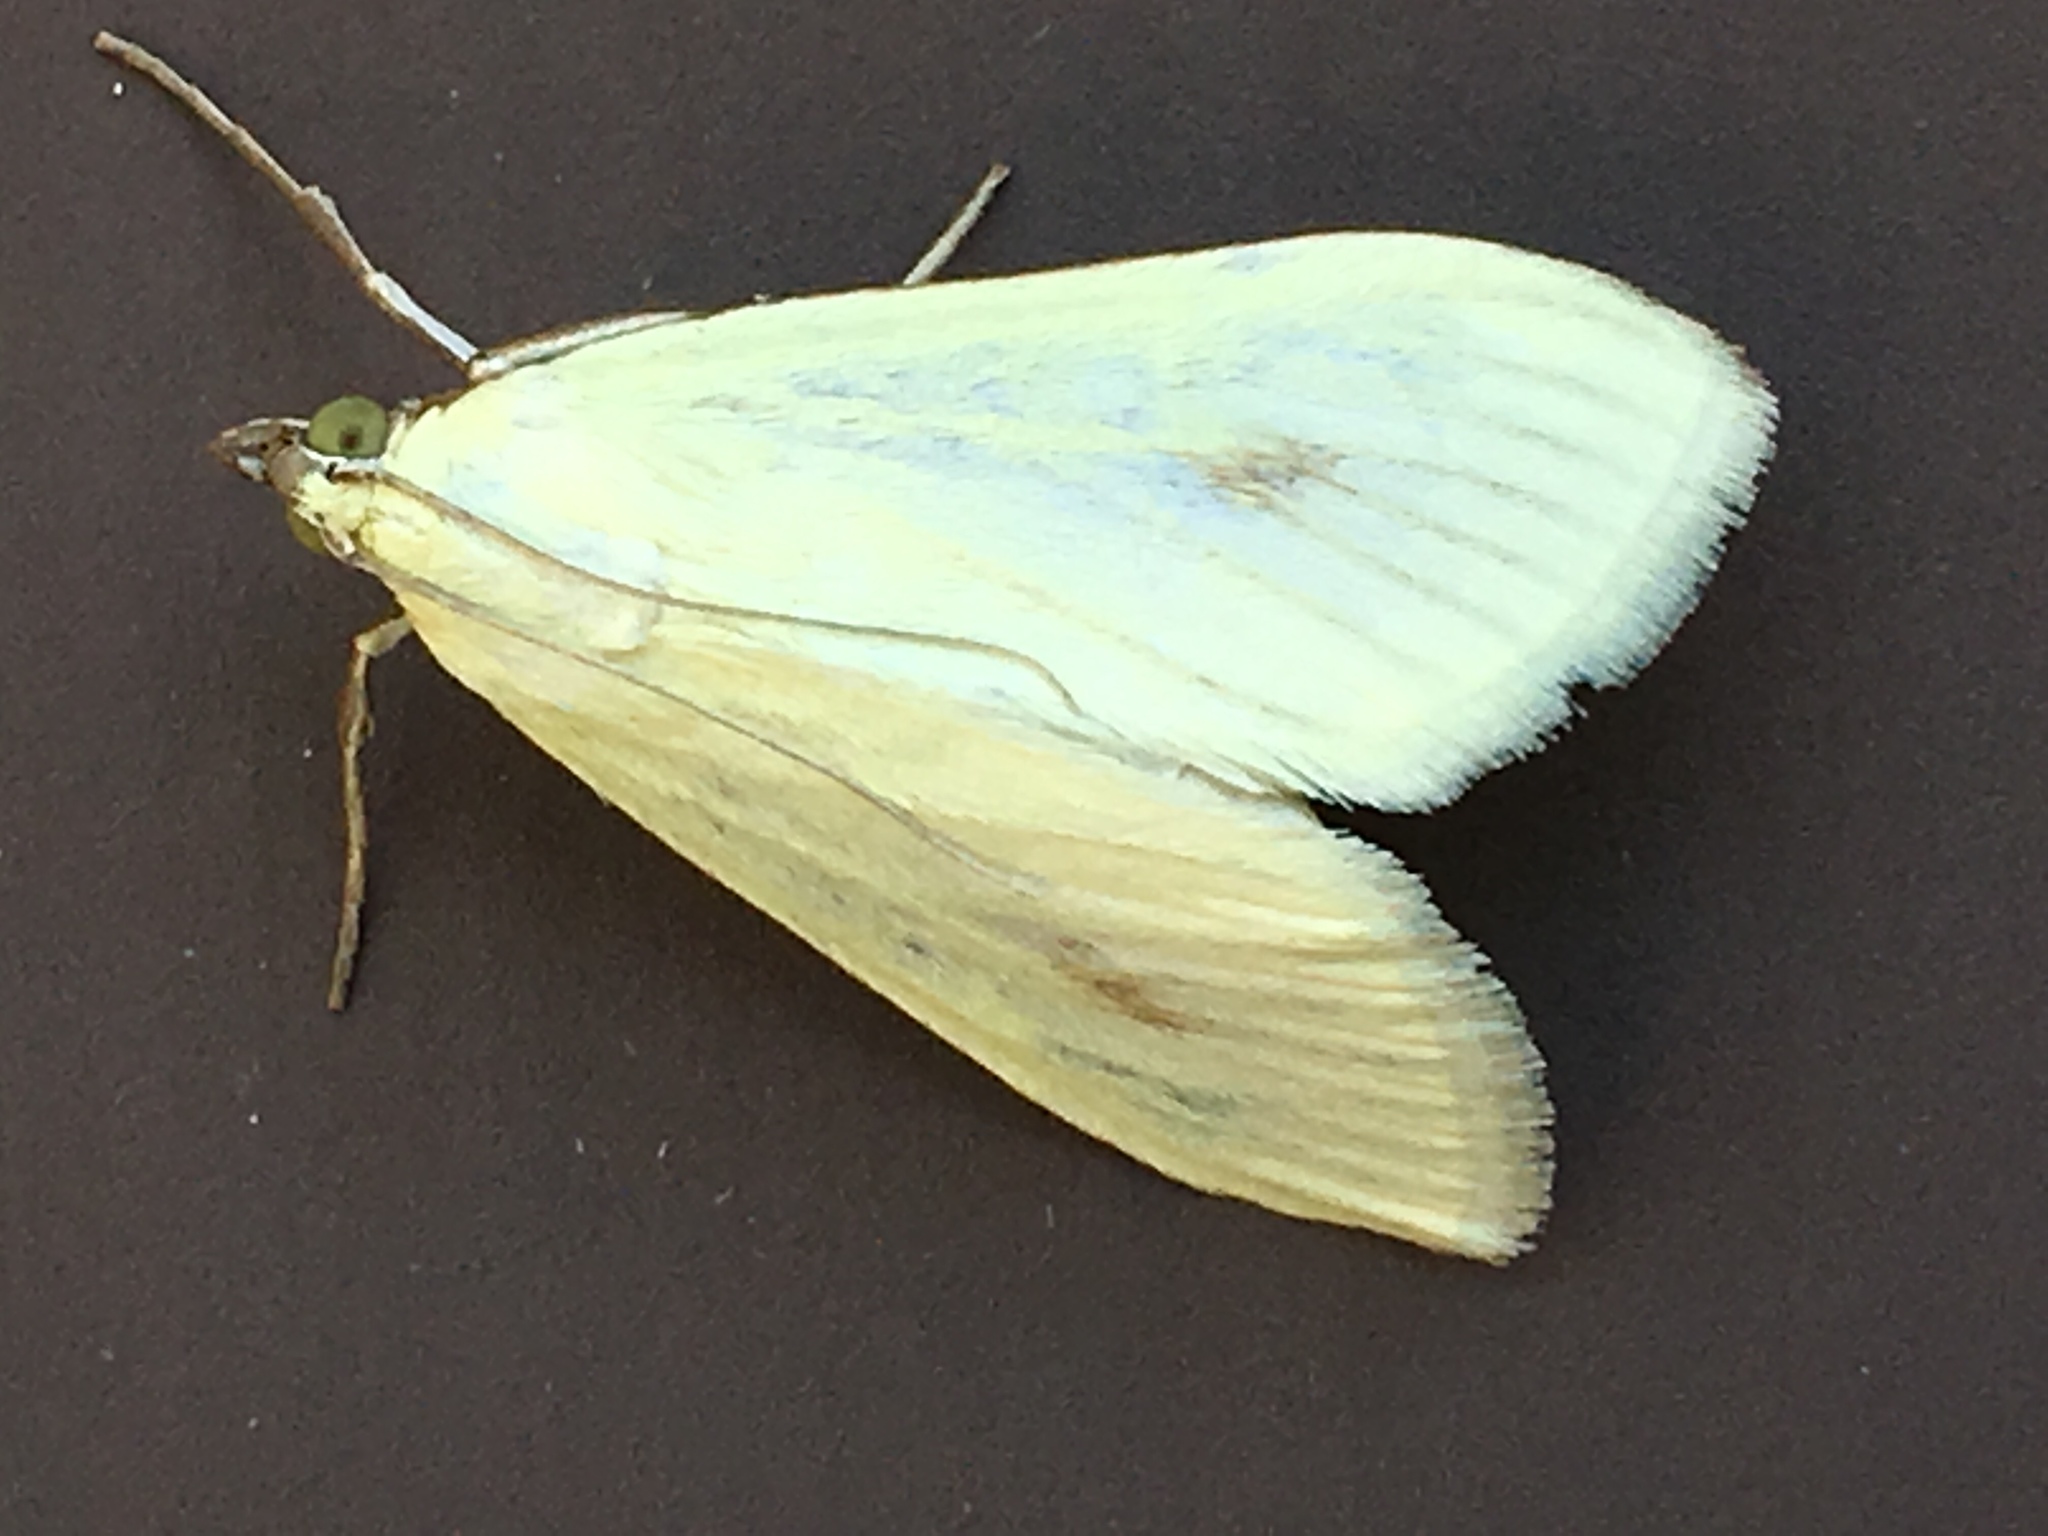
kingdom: Animalia
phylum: Arthropoda
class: Insecta
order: Lepidoptera
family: Crambidae
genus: Sitochroa
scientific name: Sitochroa palealis
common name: Greenish-yellow sitochroa moth
